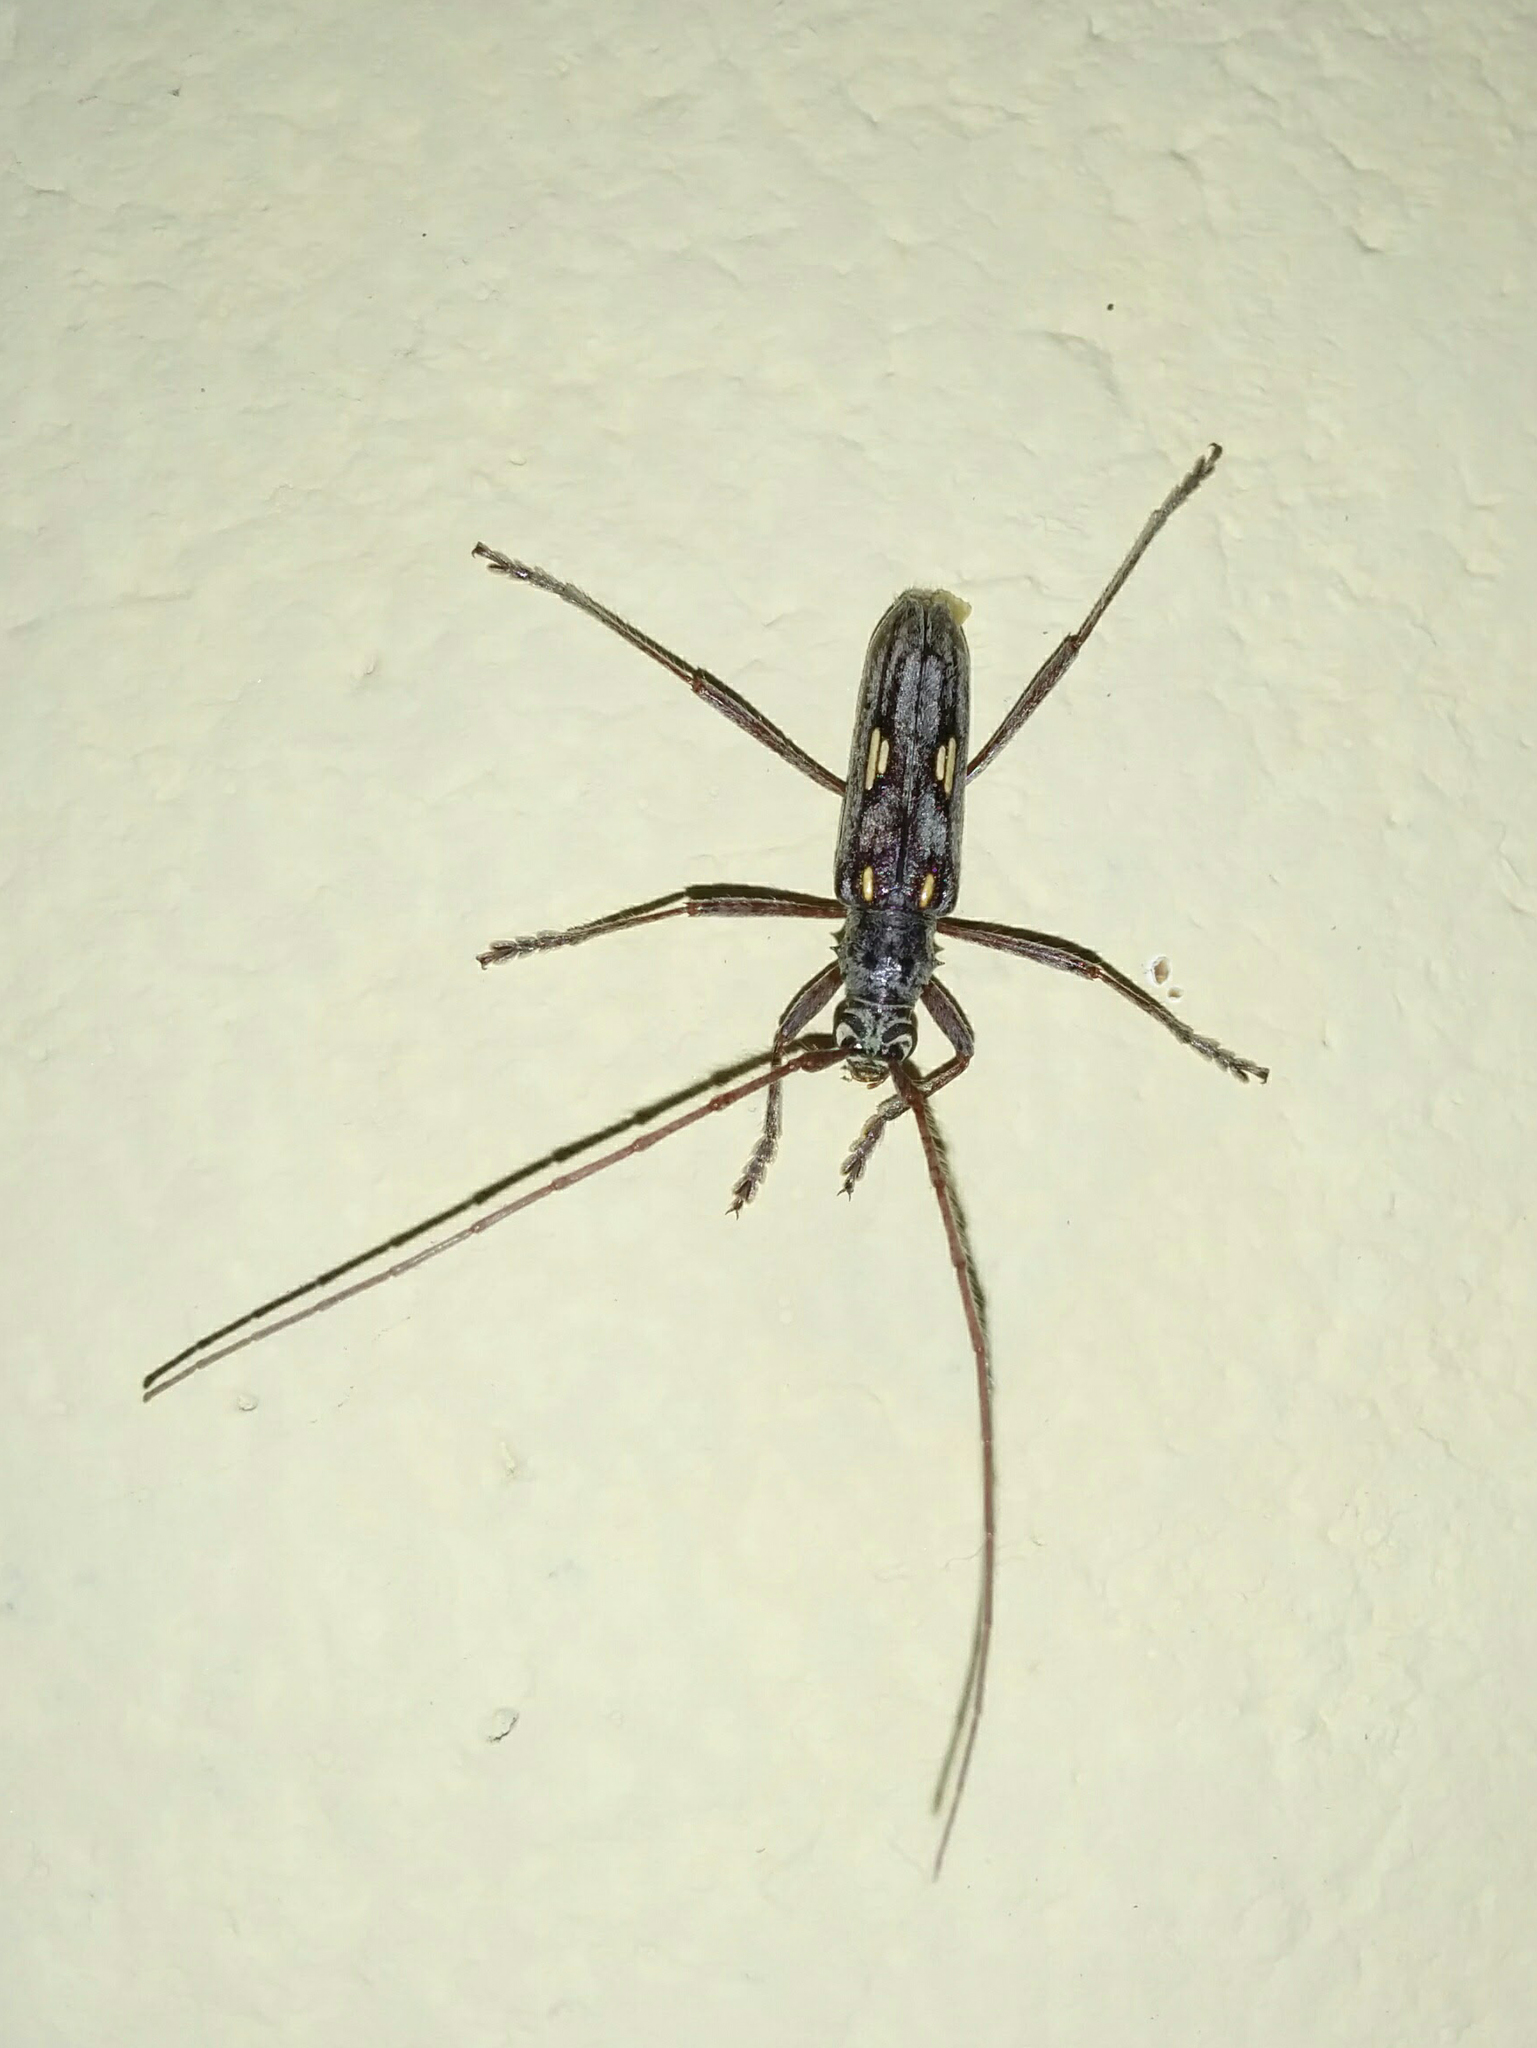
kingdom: Animalia
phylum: Arthropoda
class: Insecta
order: Coleoptera
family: Cerambycidae
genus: Eburia
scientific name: Eburia lanigera
